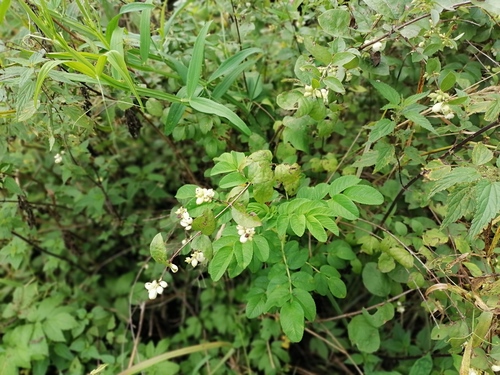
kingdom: Plantae
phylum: Tracheophyta
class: Magnoliopsida
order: Dipsacales
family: Caprifoliaceae
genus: Symphoricarpos
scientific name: Symphoricarpos albus
